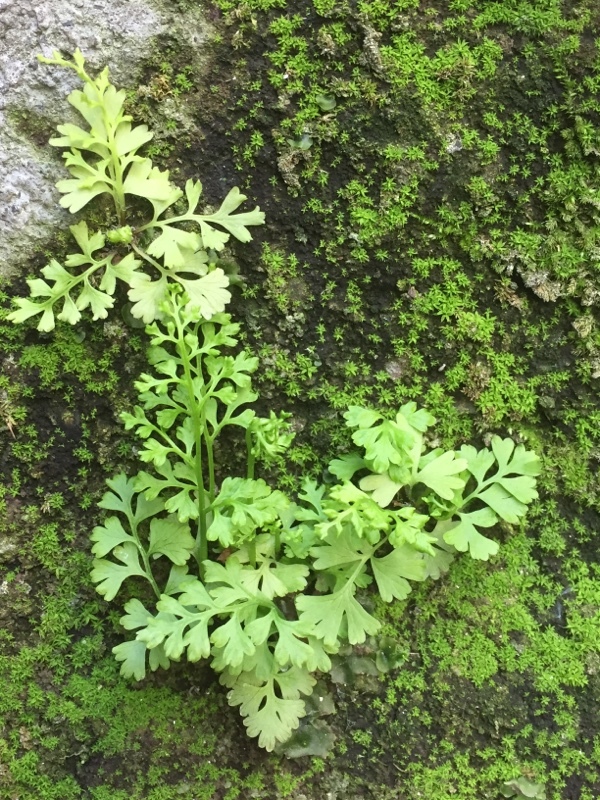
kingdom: Plantae
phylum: Tracheophyta
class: Polypodiopsida
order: Polypodiales
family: Pteridaceae
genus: Anogramma
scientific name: Anogramma leptophylla
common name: Jersey fern
